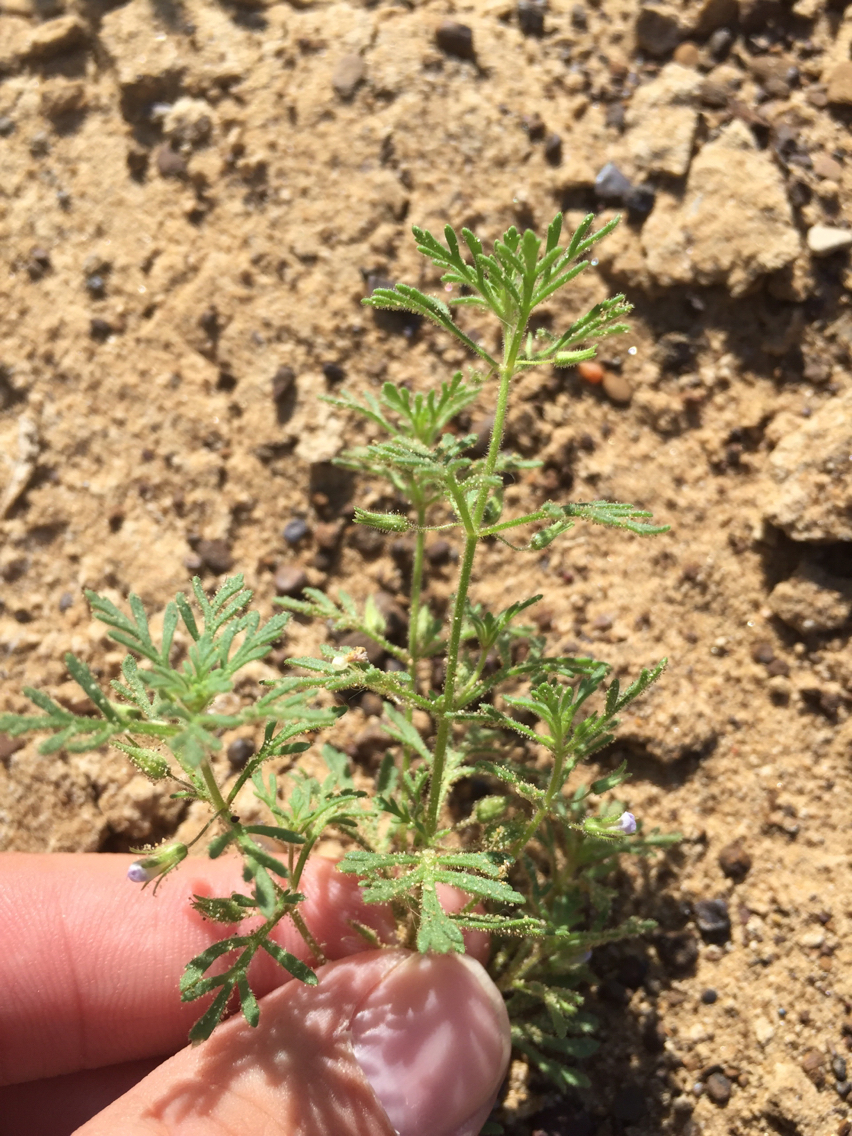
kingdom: Plantae
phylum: Tracheophyta
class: Magnoliopsida
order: Lamiales
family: Plantaginaceae
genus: Leucospora
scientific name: Leucospora multifida
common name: Narrow-leaf paleseed
